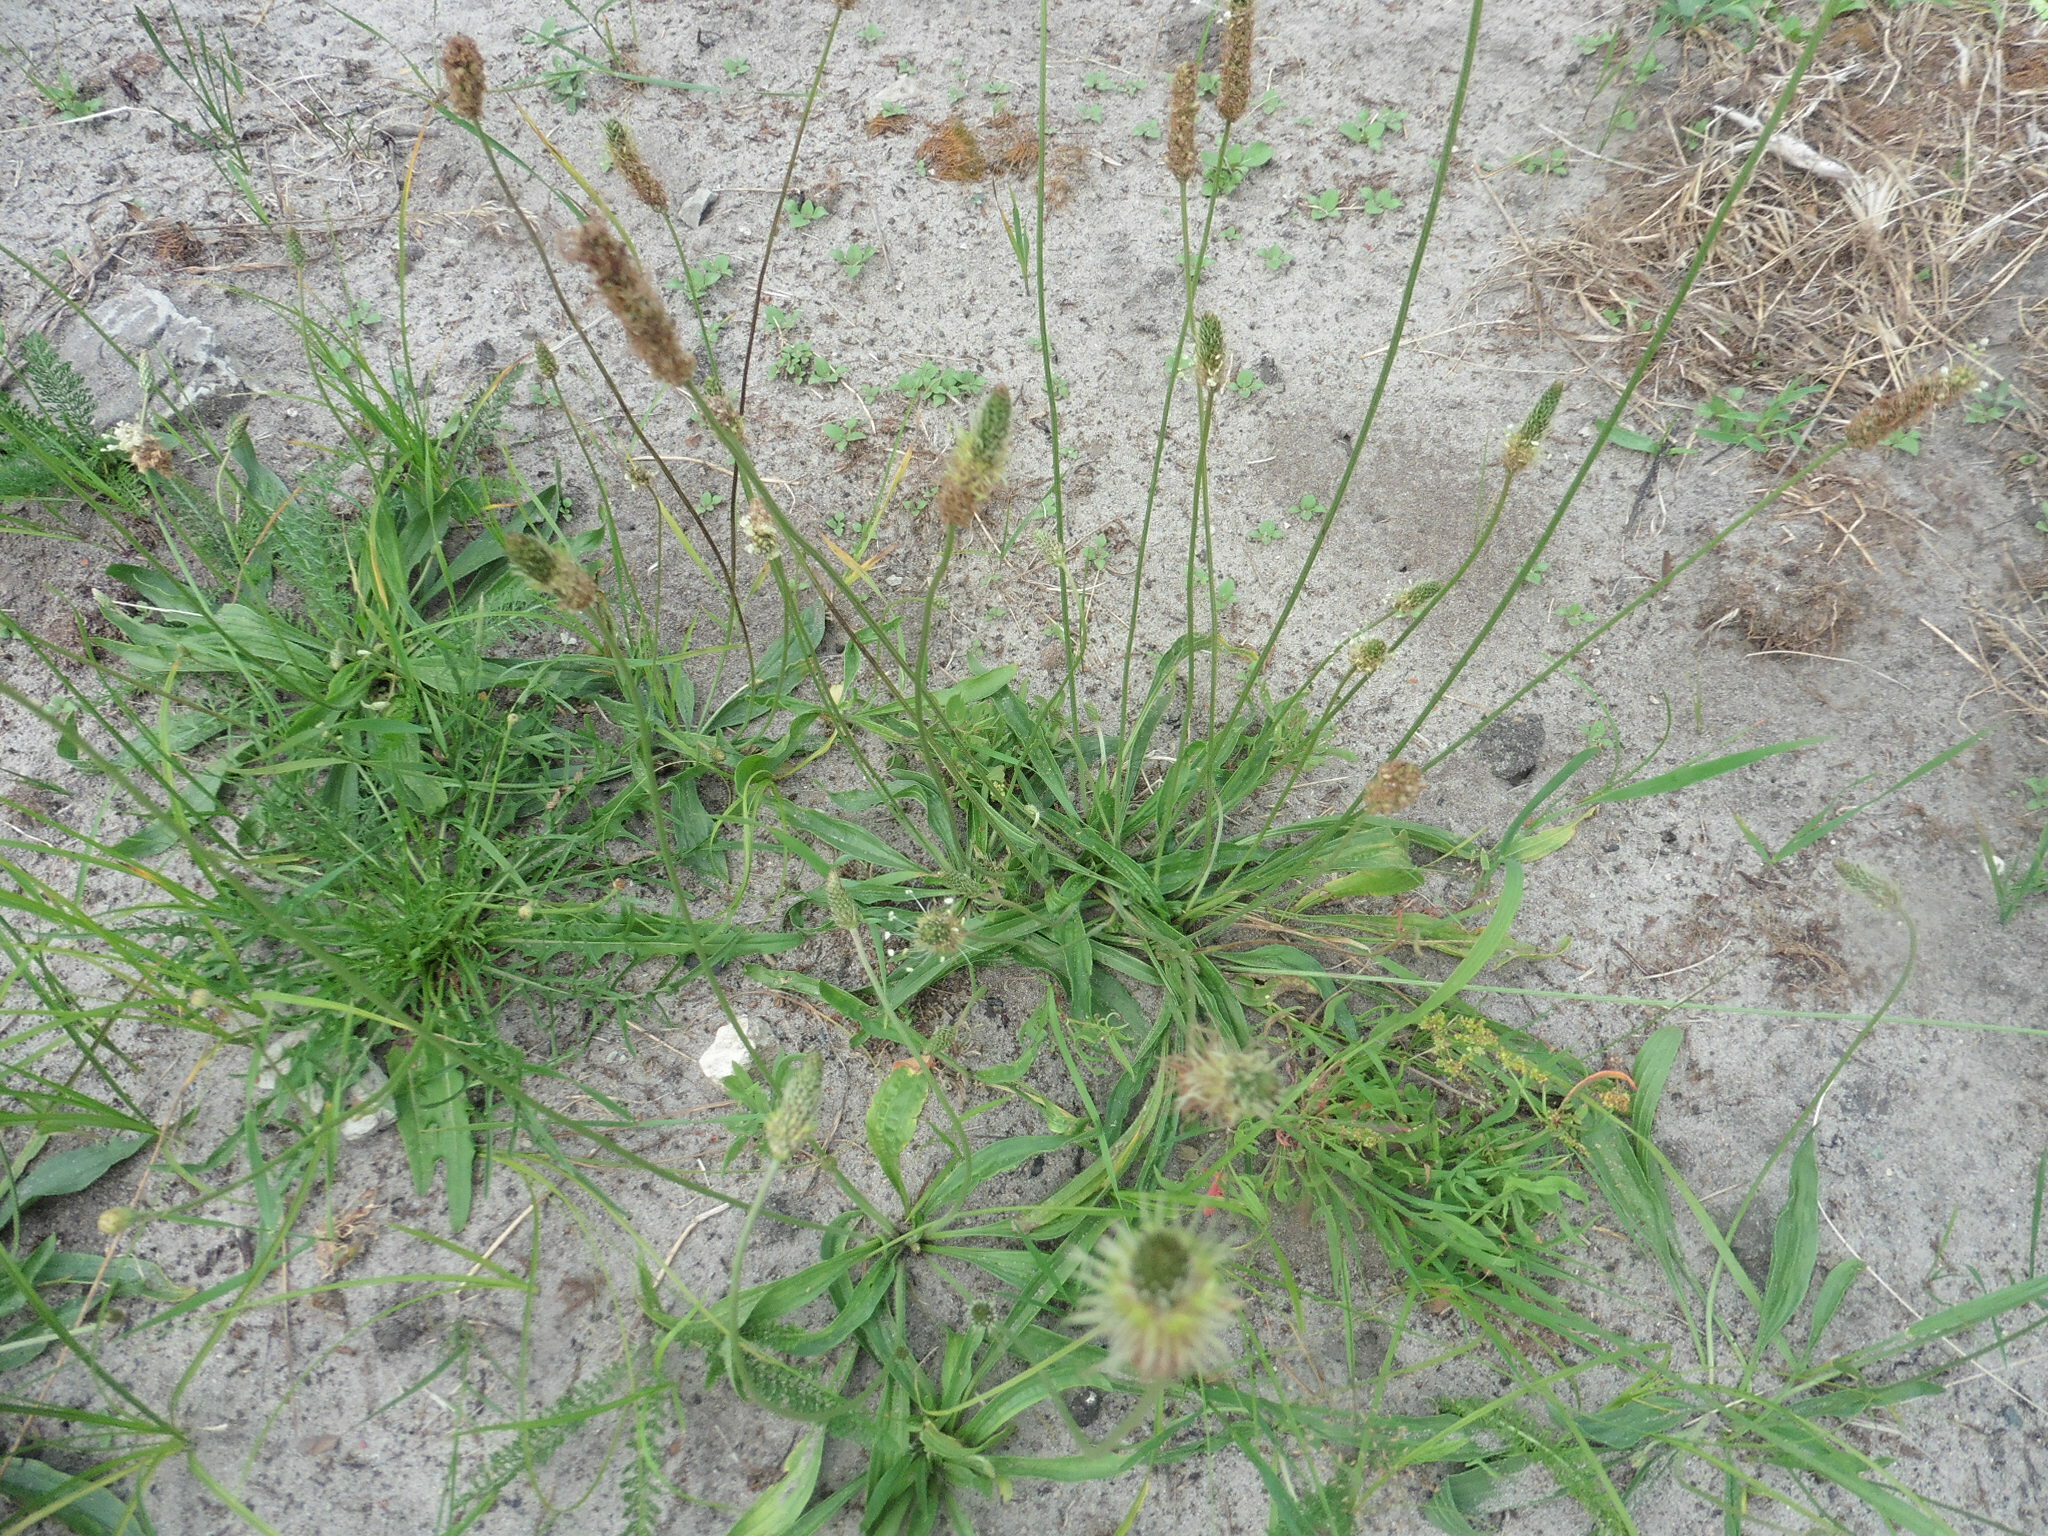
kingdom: Plantae
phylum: Tracheophyta
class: Magnoliopsida
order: Lamiales
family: Plantaginaceae
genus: Plantago
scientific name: Plantago lanceolata
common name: Ribwort plantain
